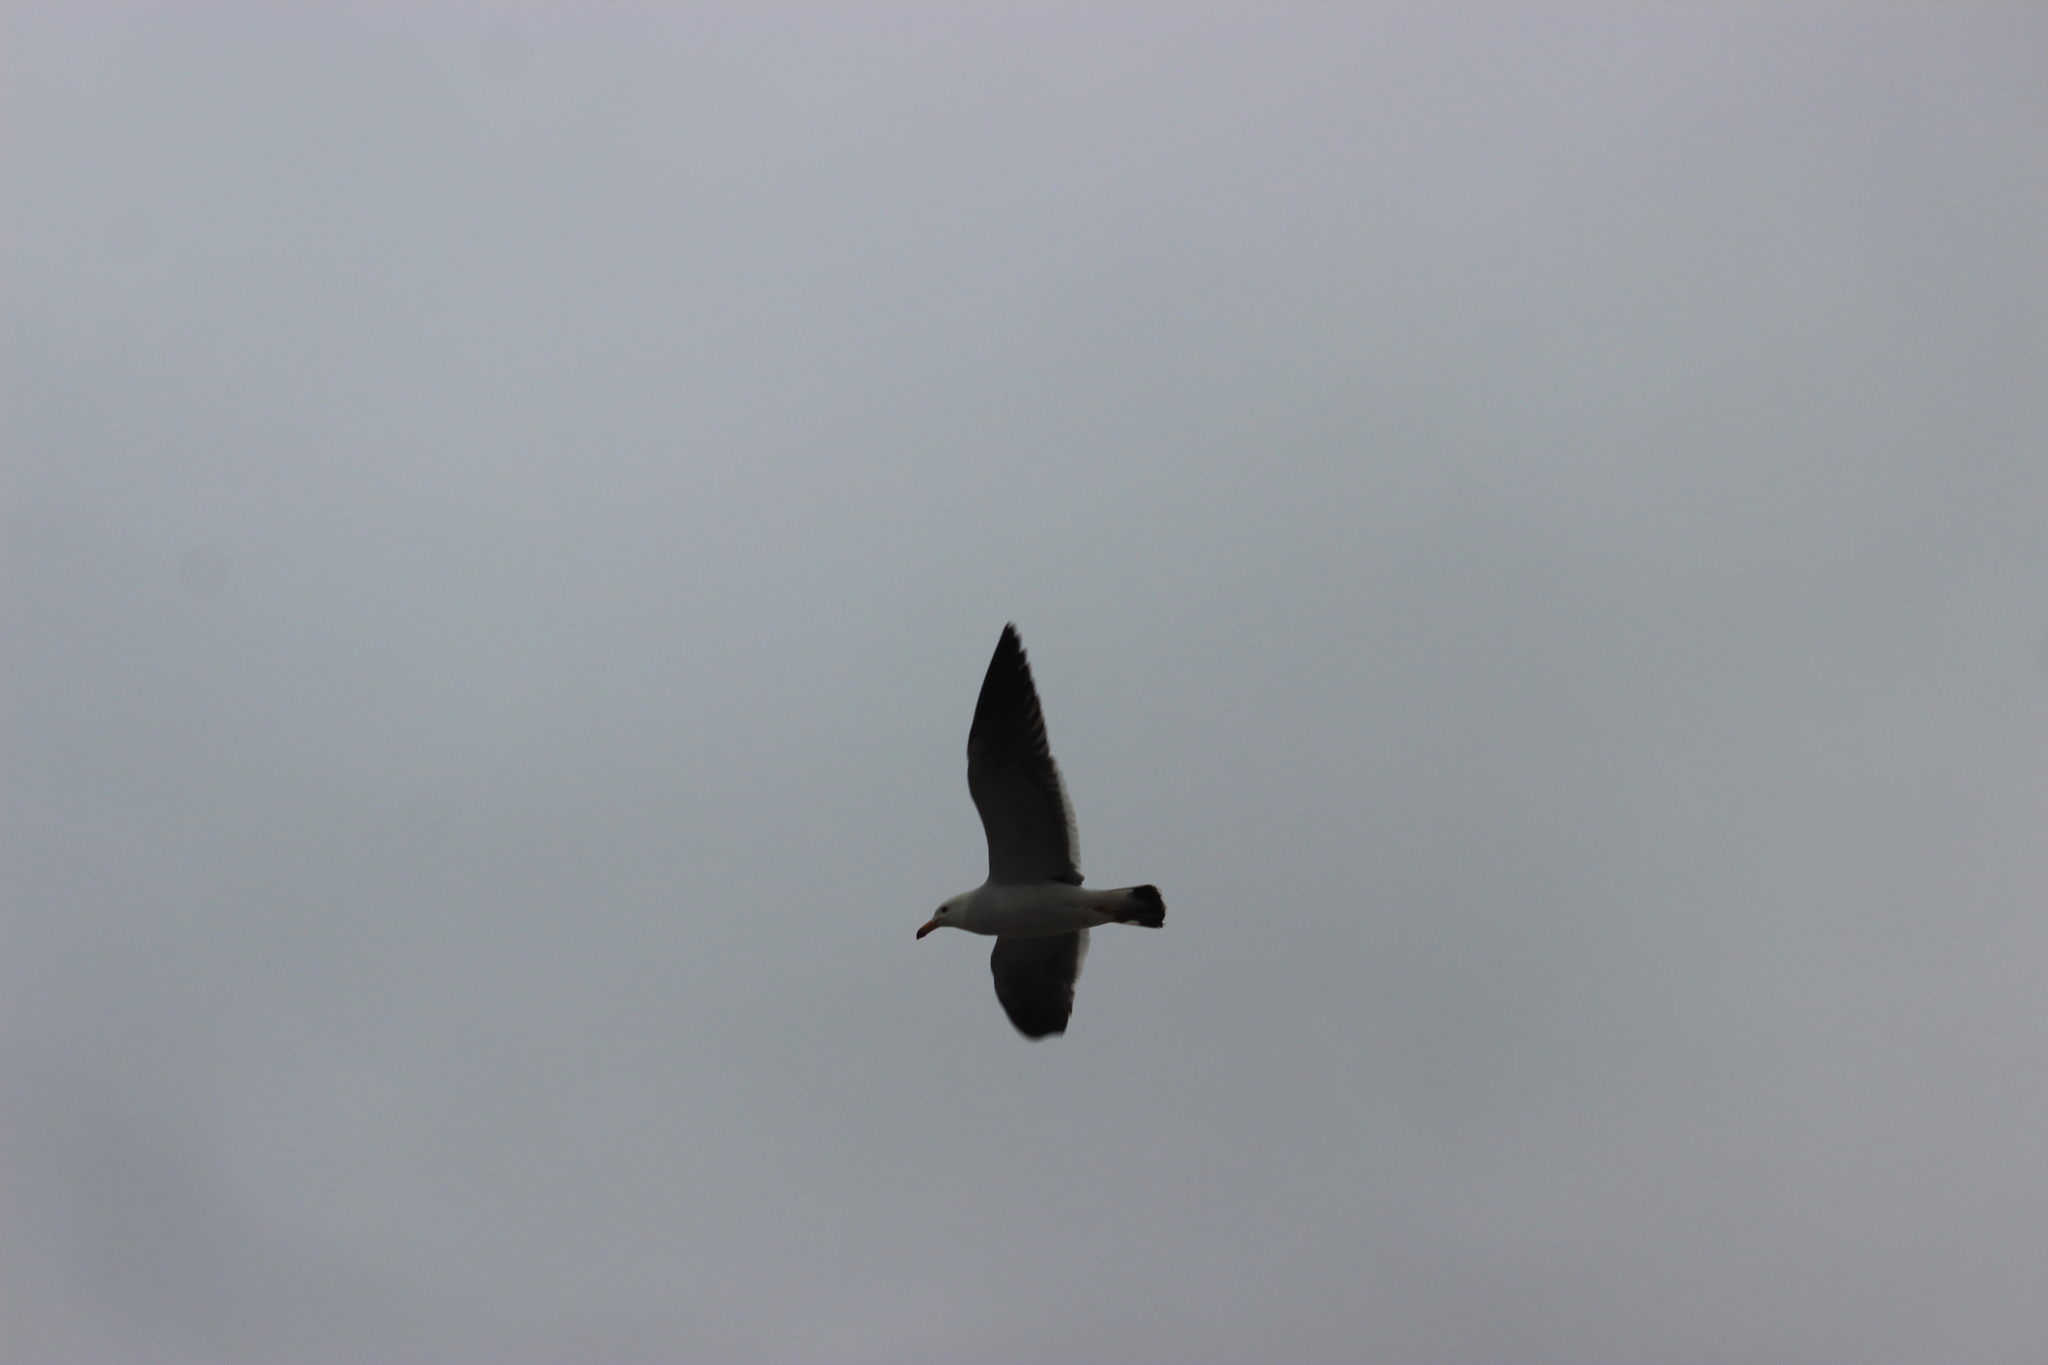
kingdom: Animalia
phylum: Chordata
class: Aves
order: Charadriiformes
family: Laridae
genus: Larus
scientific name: Larus belcheri
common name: Belcher's gull
